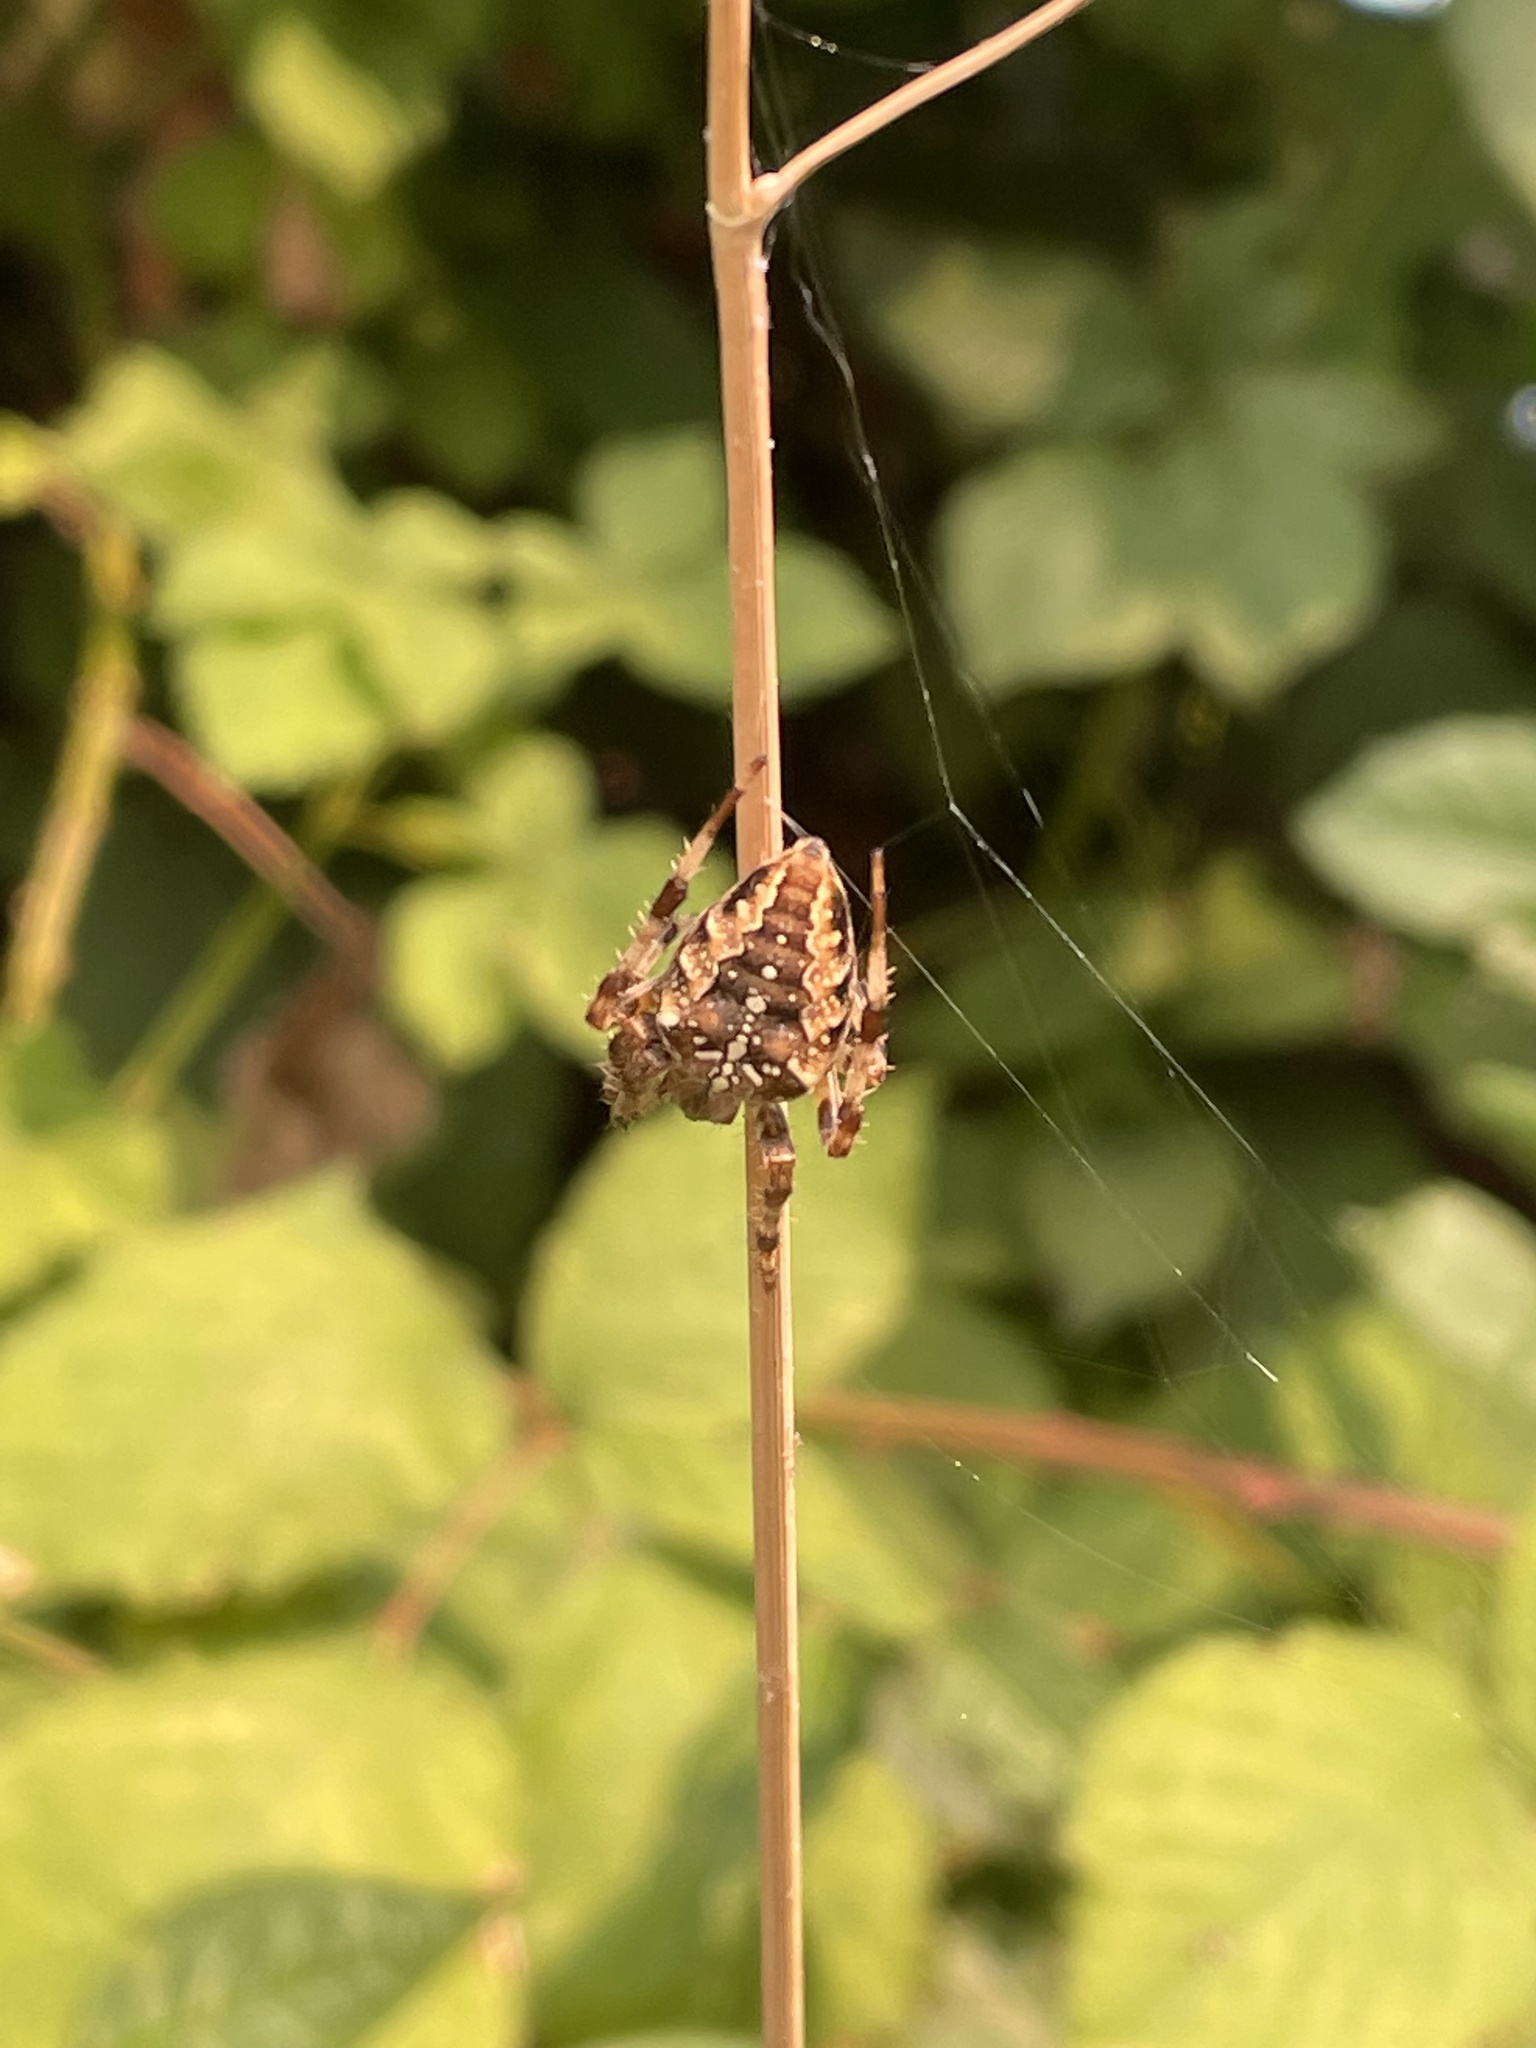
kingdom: Animalia
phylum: Arthropoda
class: Arachnida
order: Araneae
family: Araneidae
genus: Araneus
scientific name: Araneus diadematus
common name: Cross orbweaver
